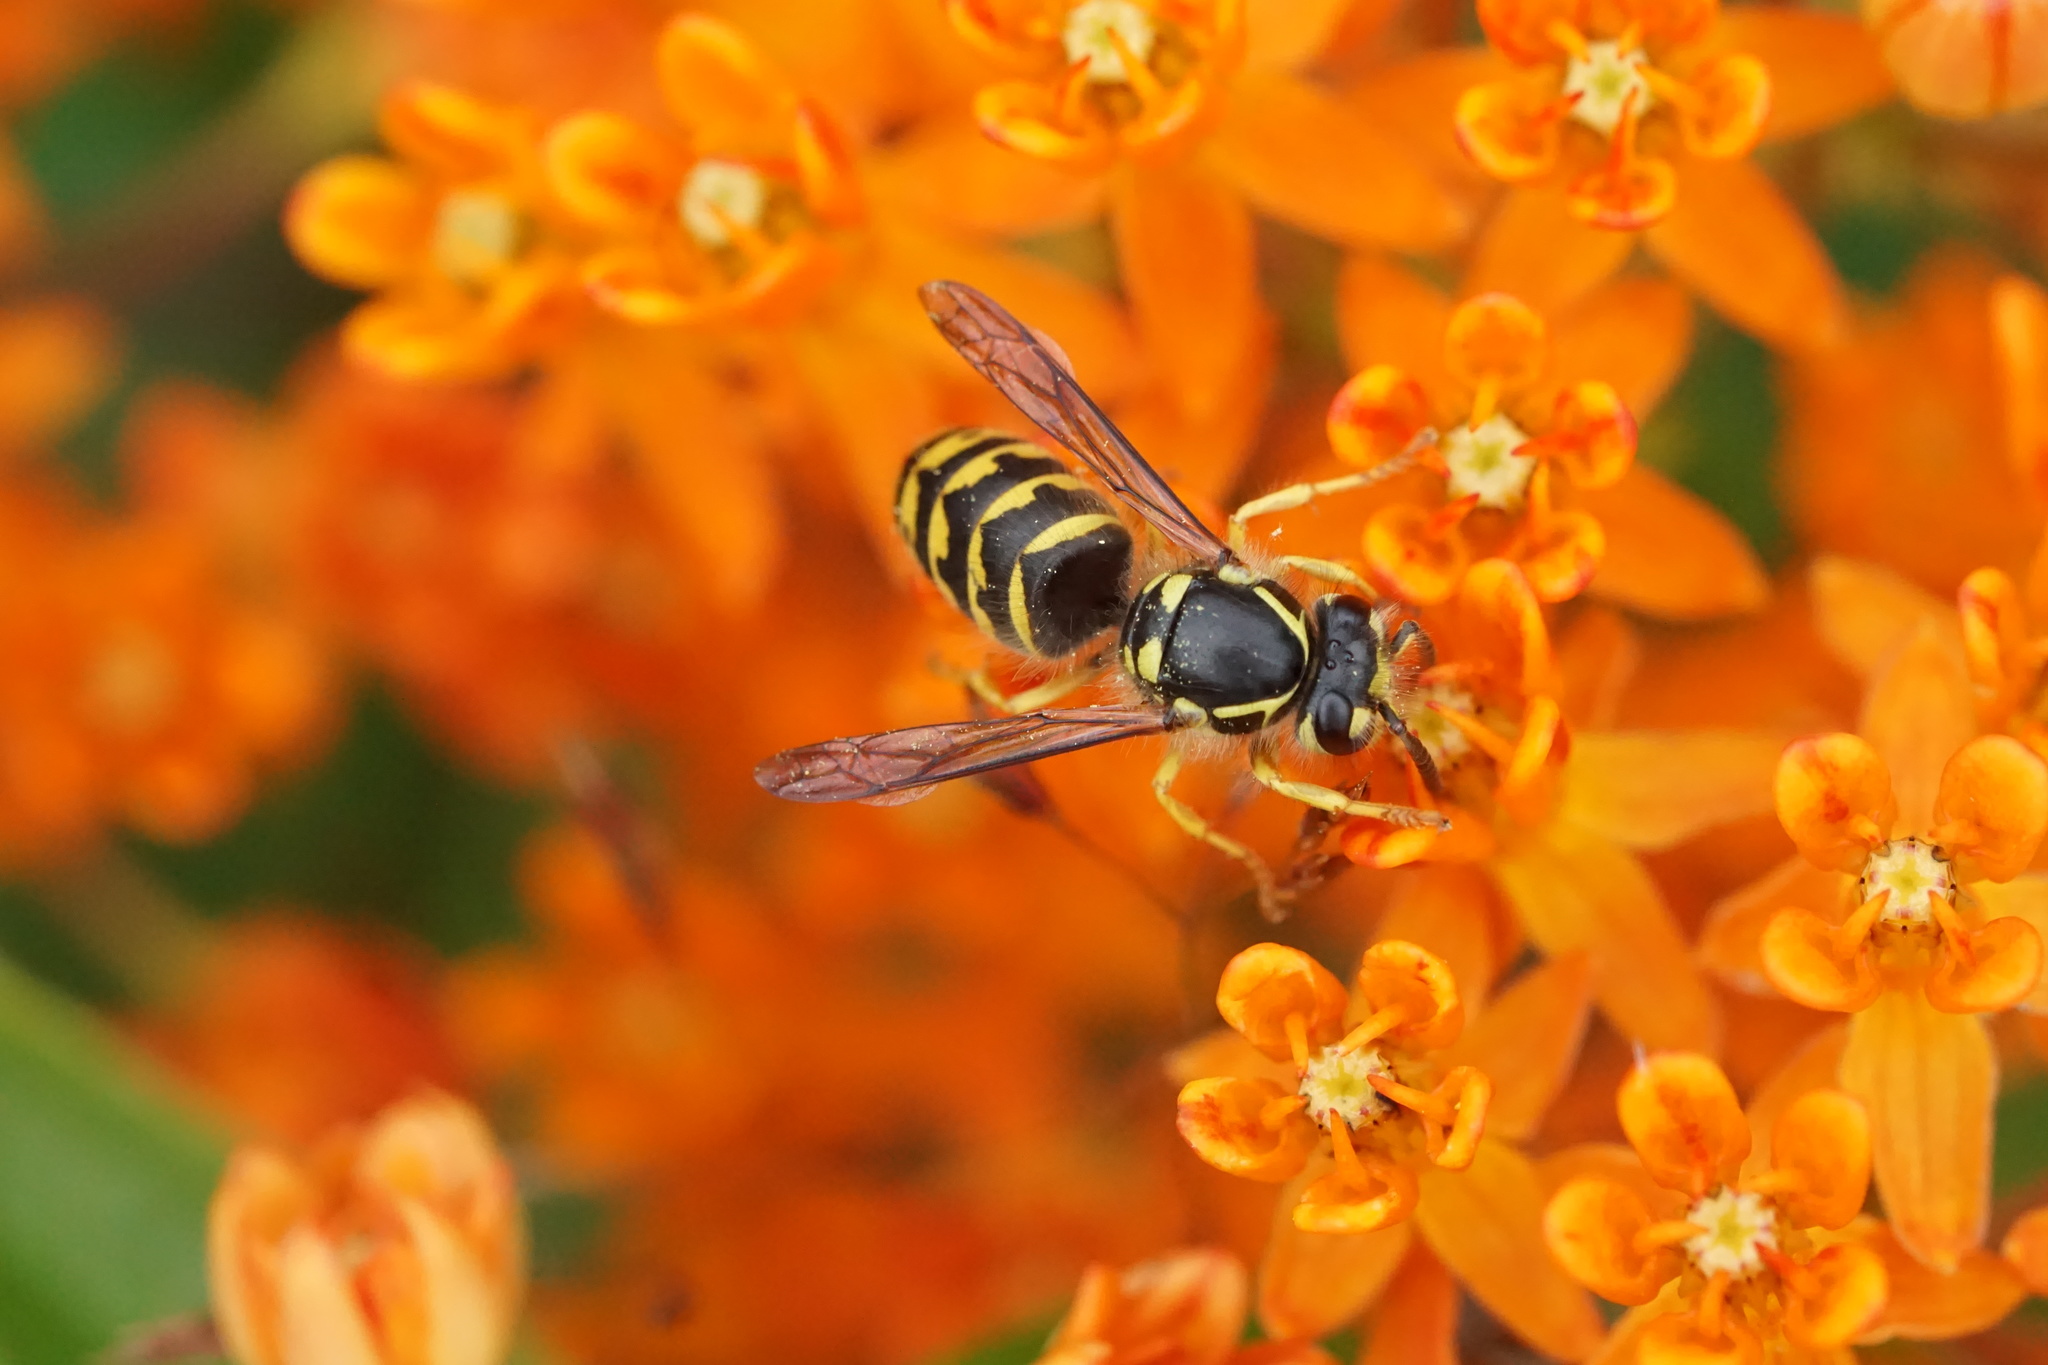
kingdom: Animalia
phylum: Arthropoda
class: Insecta
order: Hymenoptera
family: Vespidae
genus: Dolichovespula
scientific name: Dolichovespula arenaria
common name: Aerial yellowjacket
